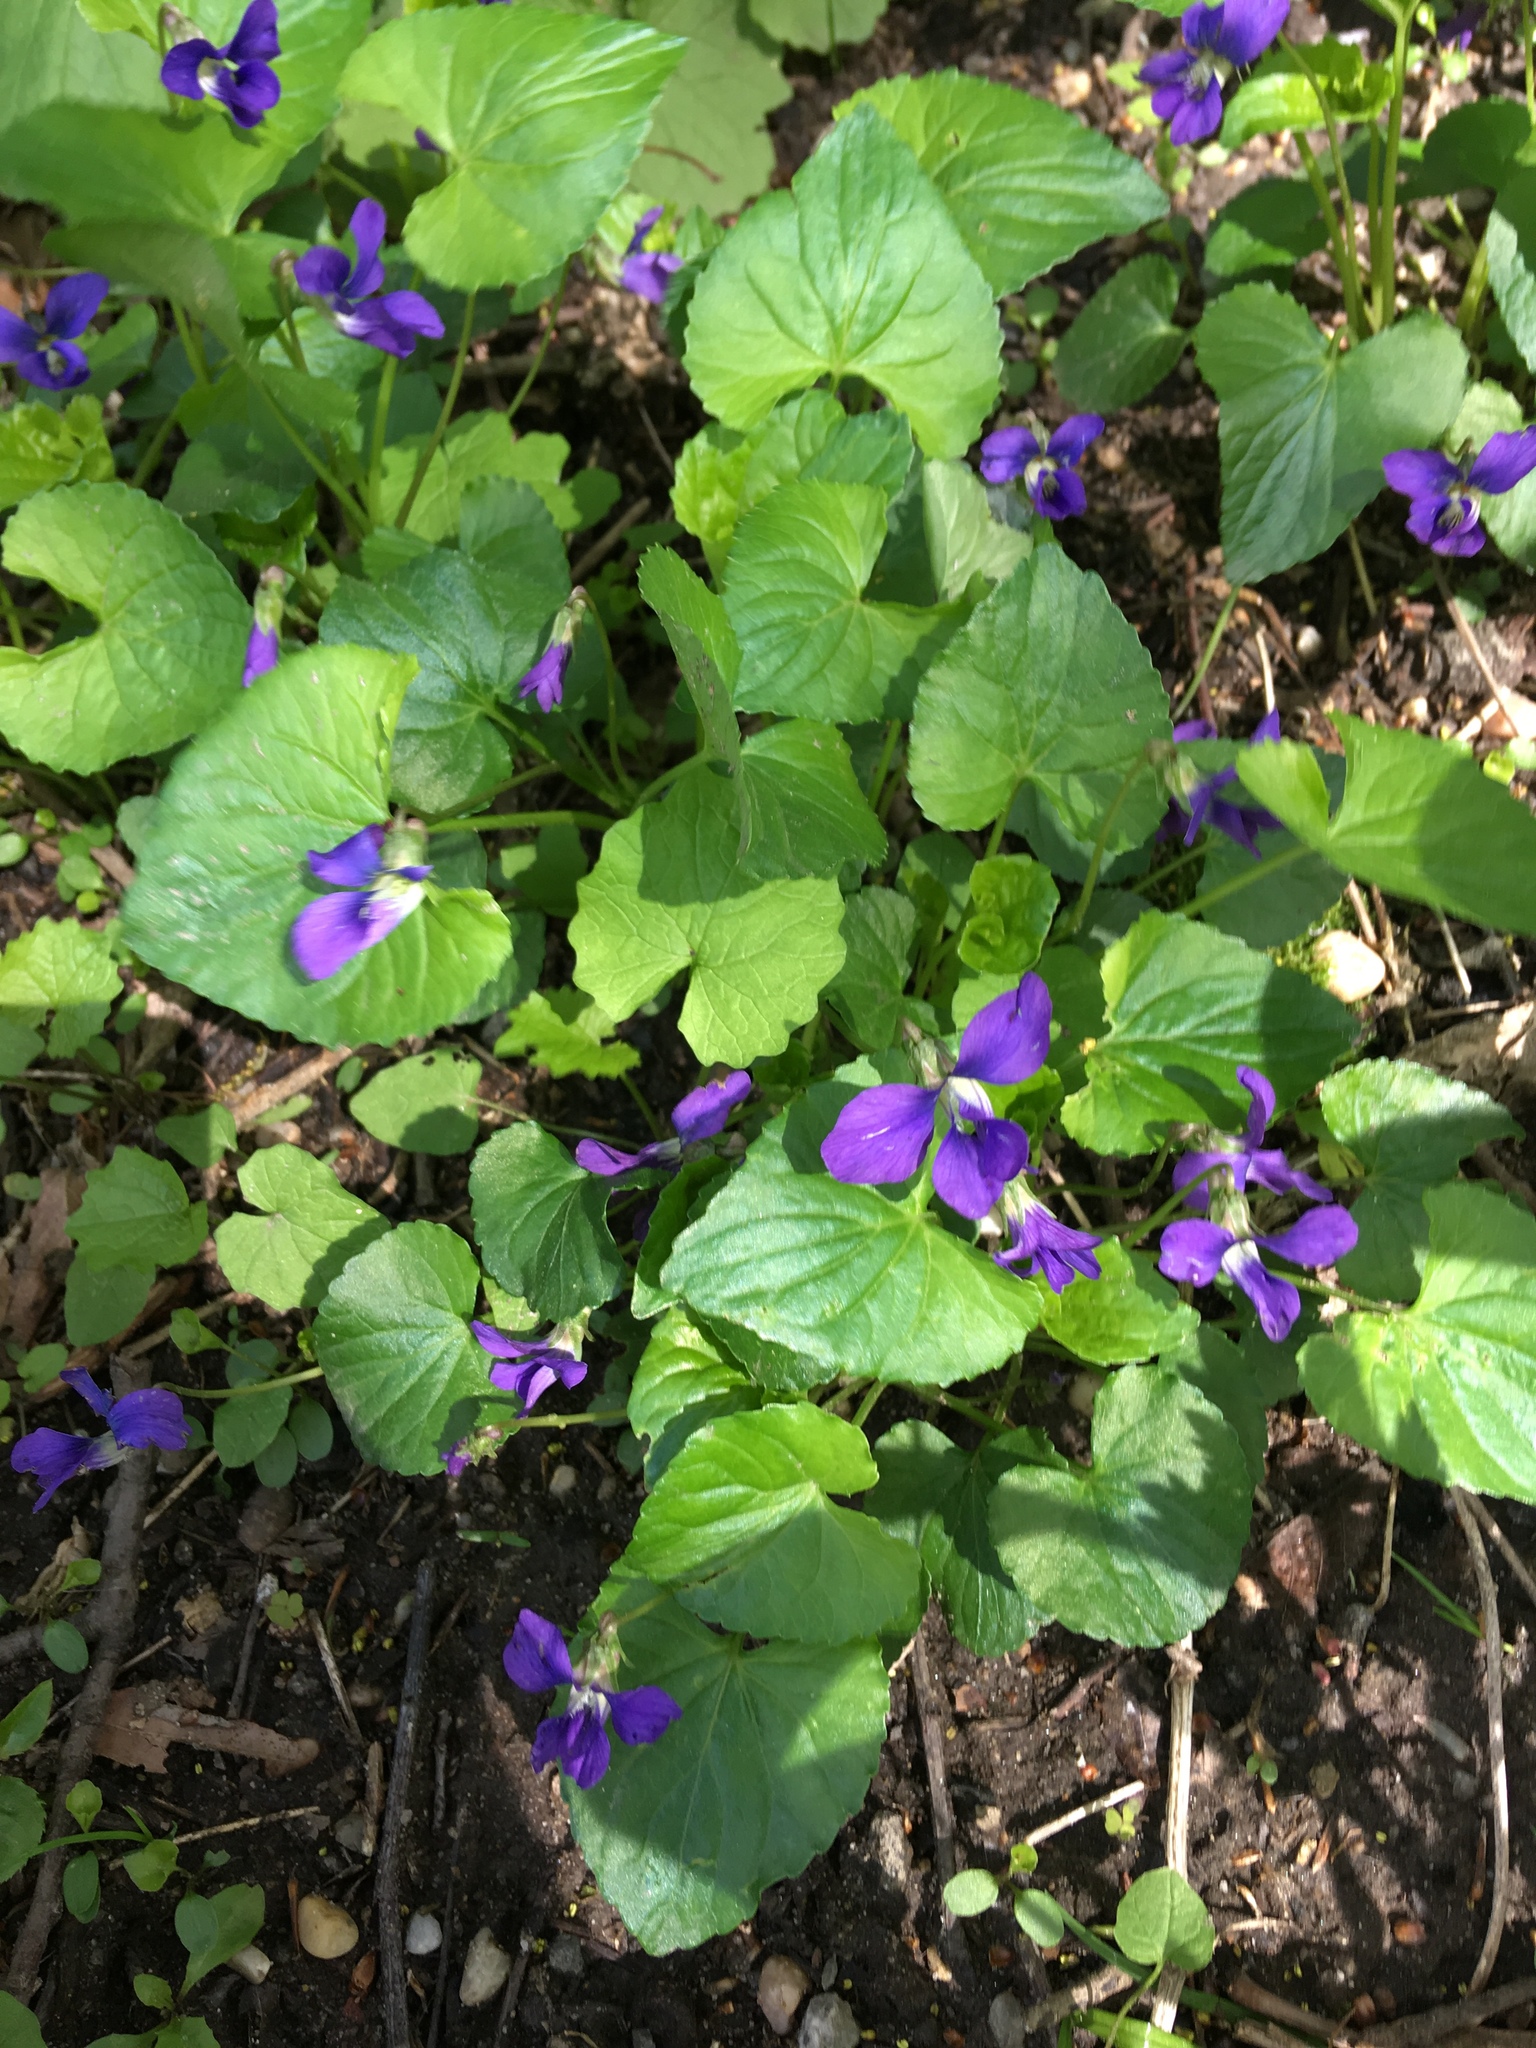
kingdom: Plantae
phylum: Tracheophyta
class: Magnoliopsida
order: Malpighiales
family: Violaceae
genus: Viola
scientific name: Viola sororia
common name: Dooryard violet
